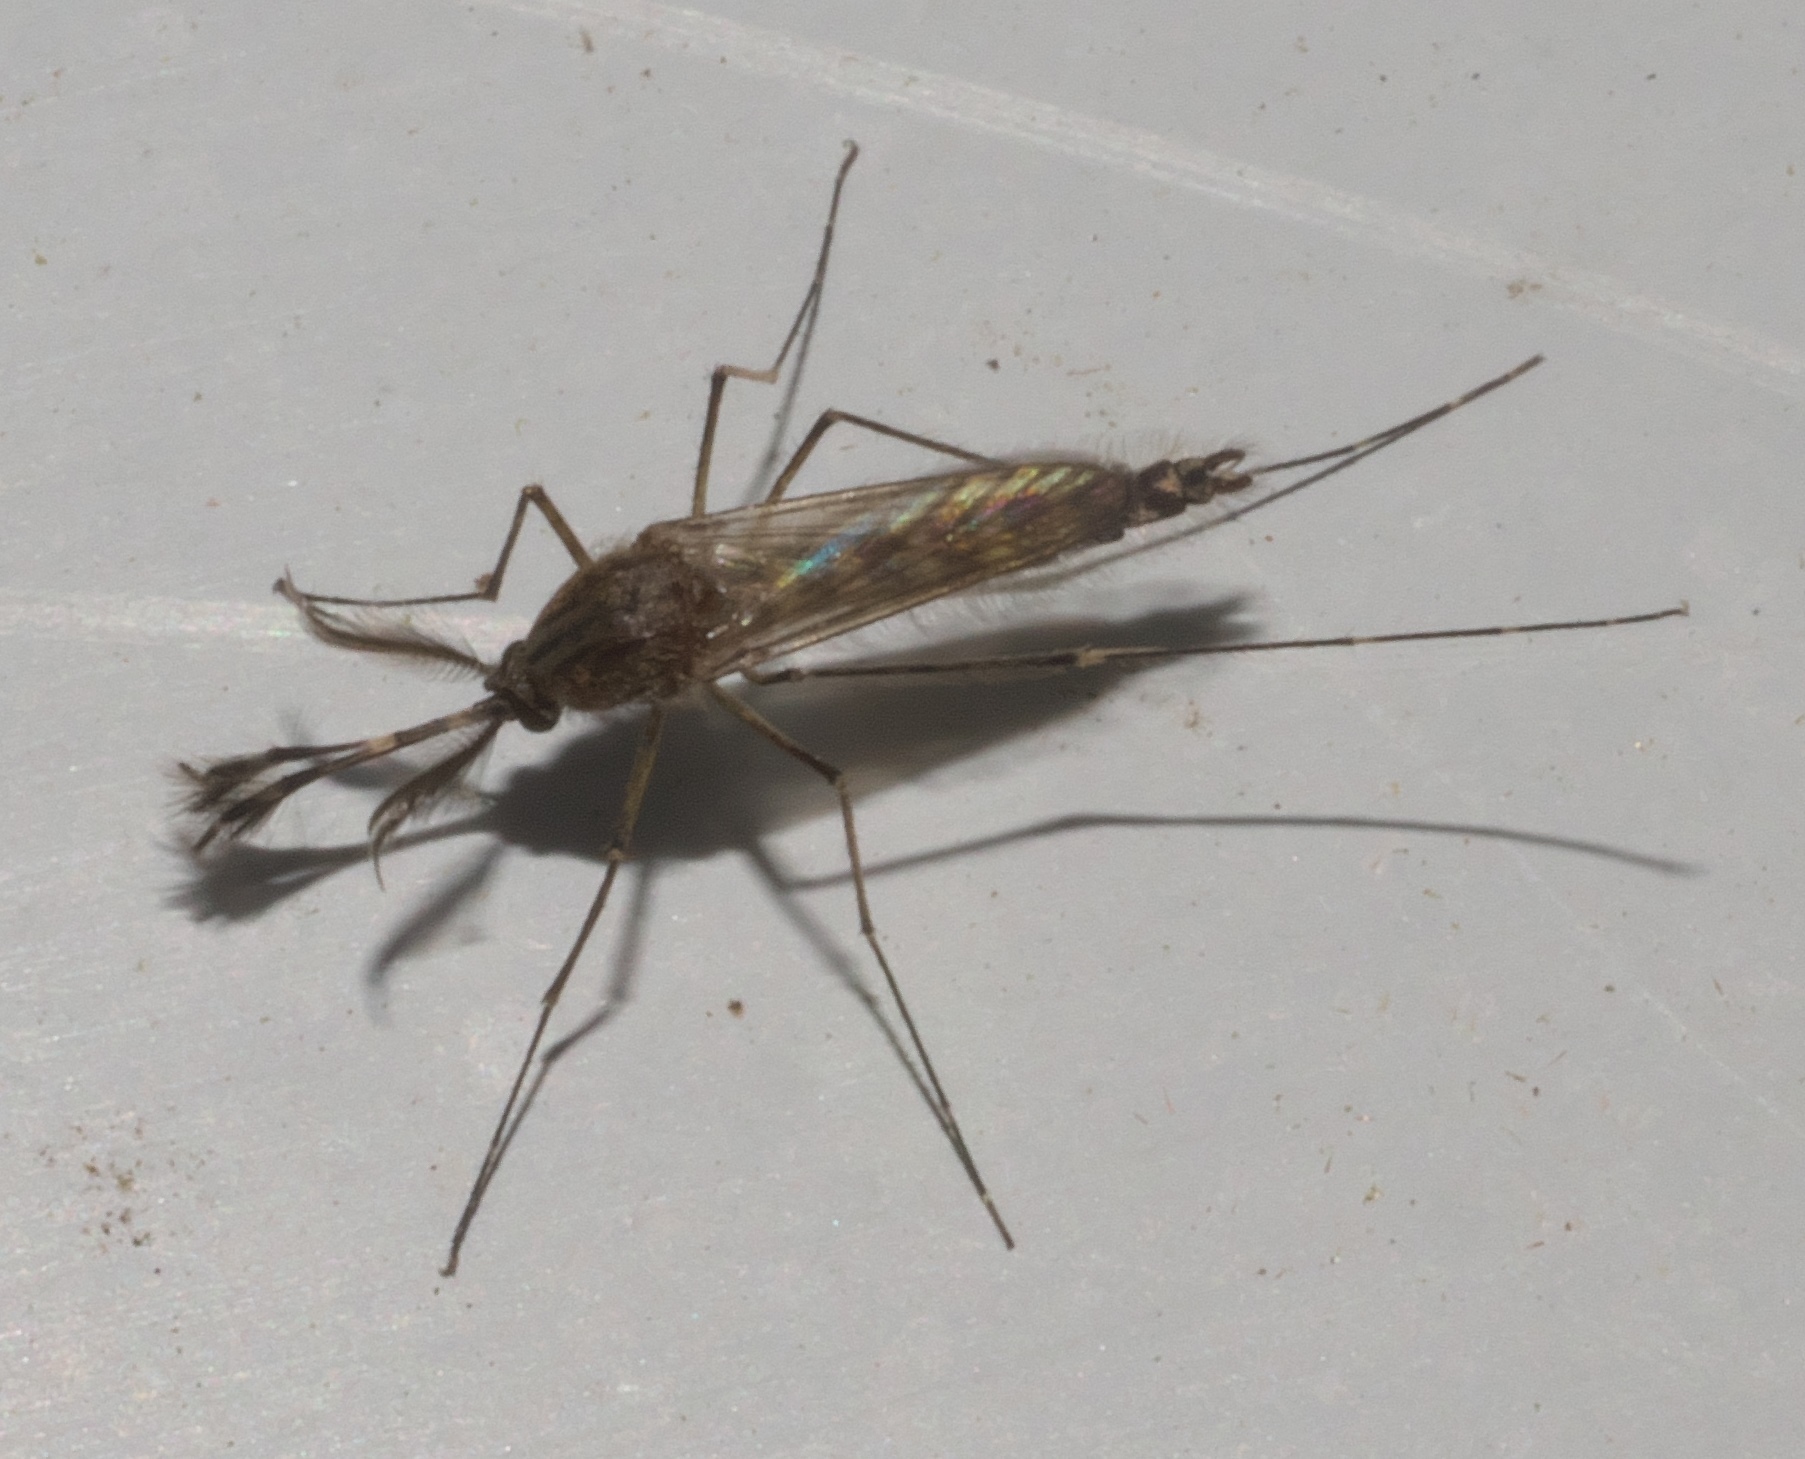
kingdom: Animalia
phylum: Arthropoda
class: Insecta
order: Diptera
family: Culicidae
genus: Aedes
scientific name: Aedes vexans
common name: Inland floodwater mosquito
